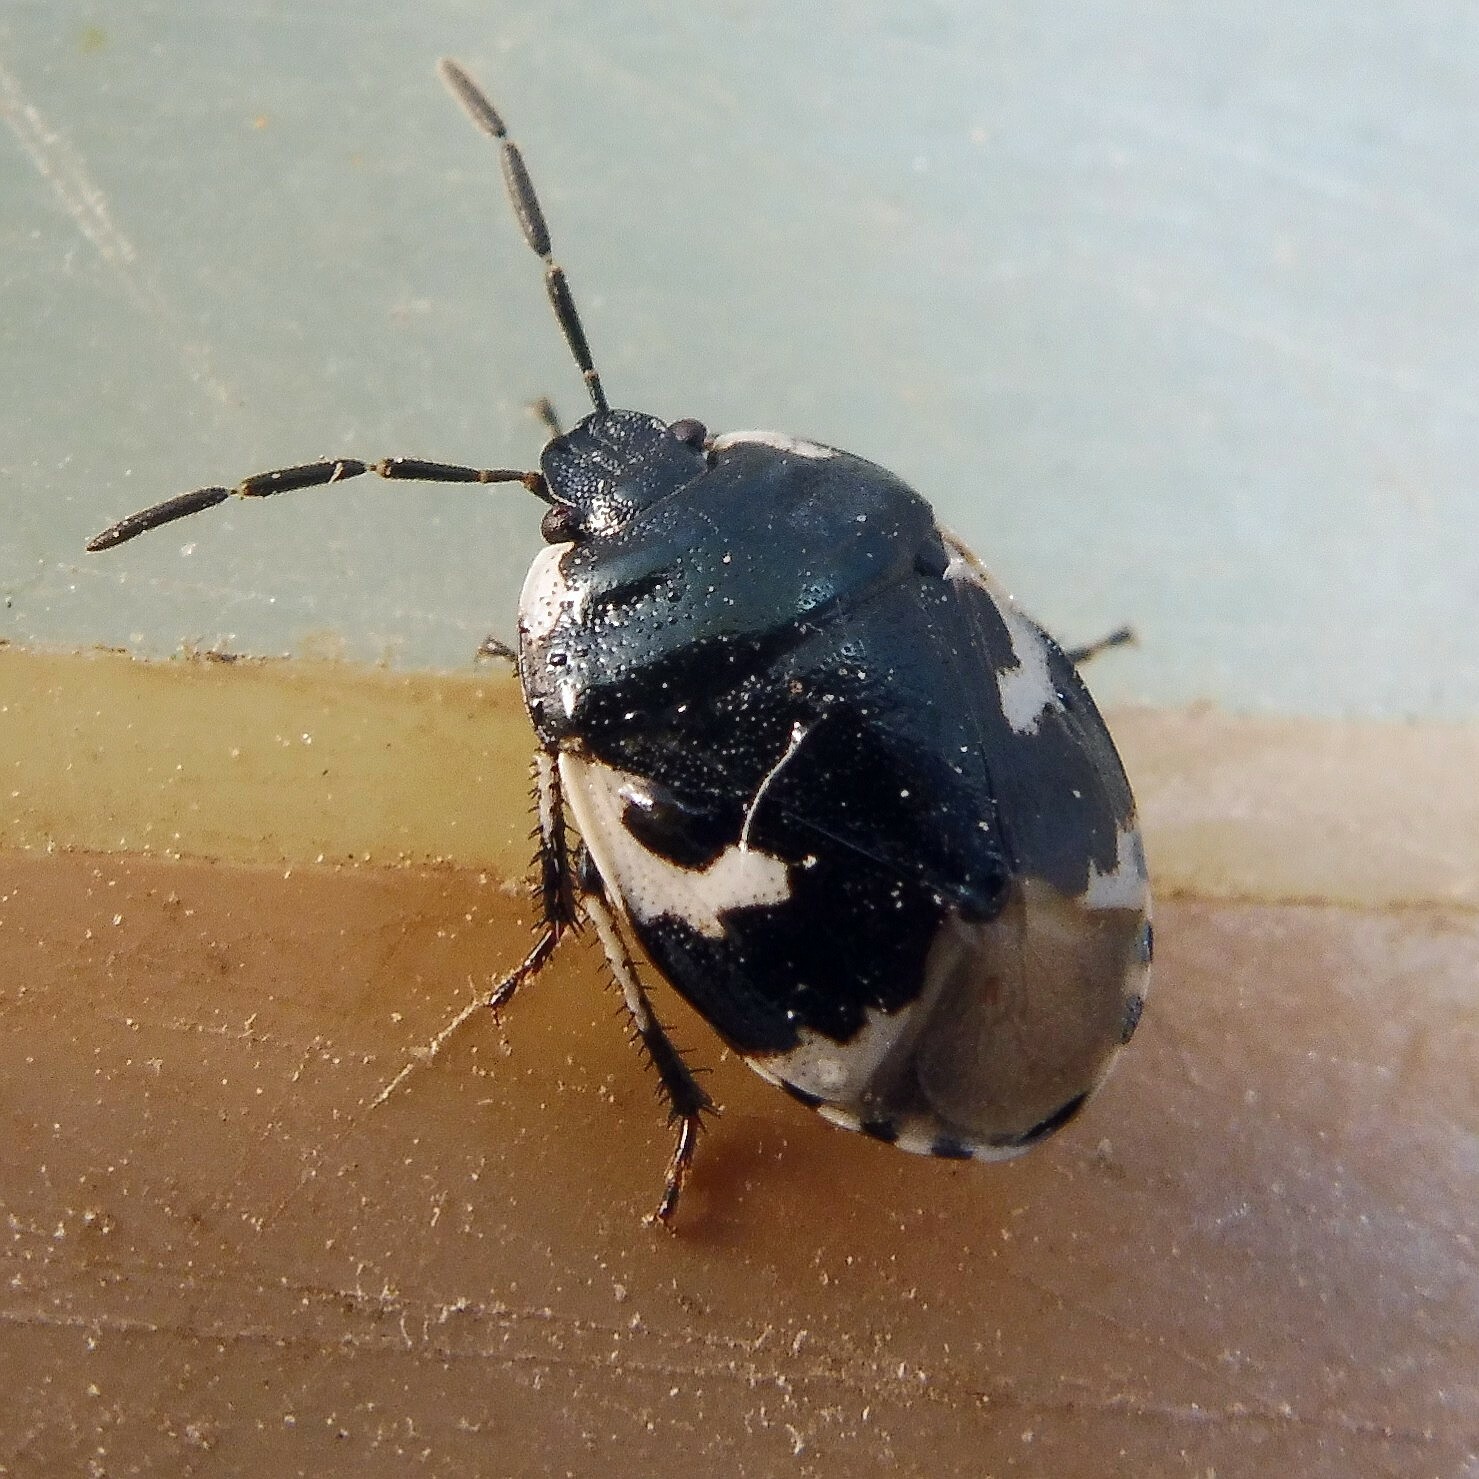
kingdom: Animalia
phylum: Arthropoda
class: Insecta
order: Hemiptera
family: Cydnidae
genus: Tritomegas
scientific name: Tritomegas bicolor
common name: Pied shieldbug
